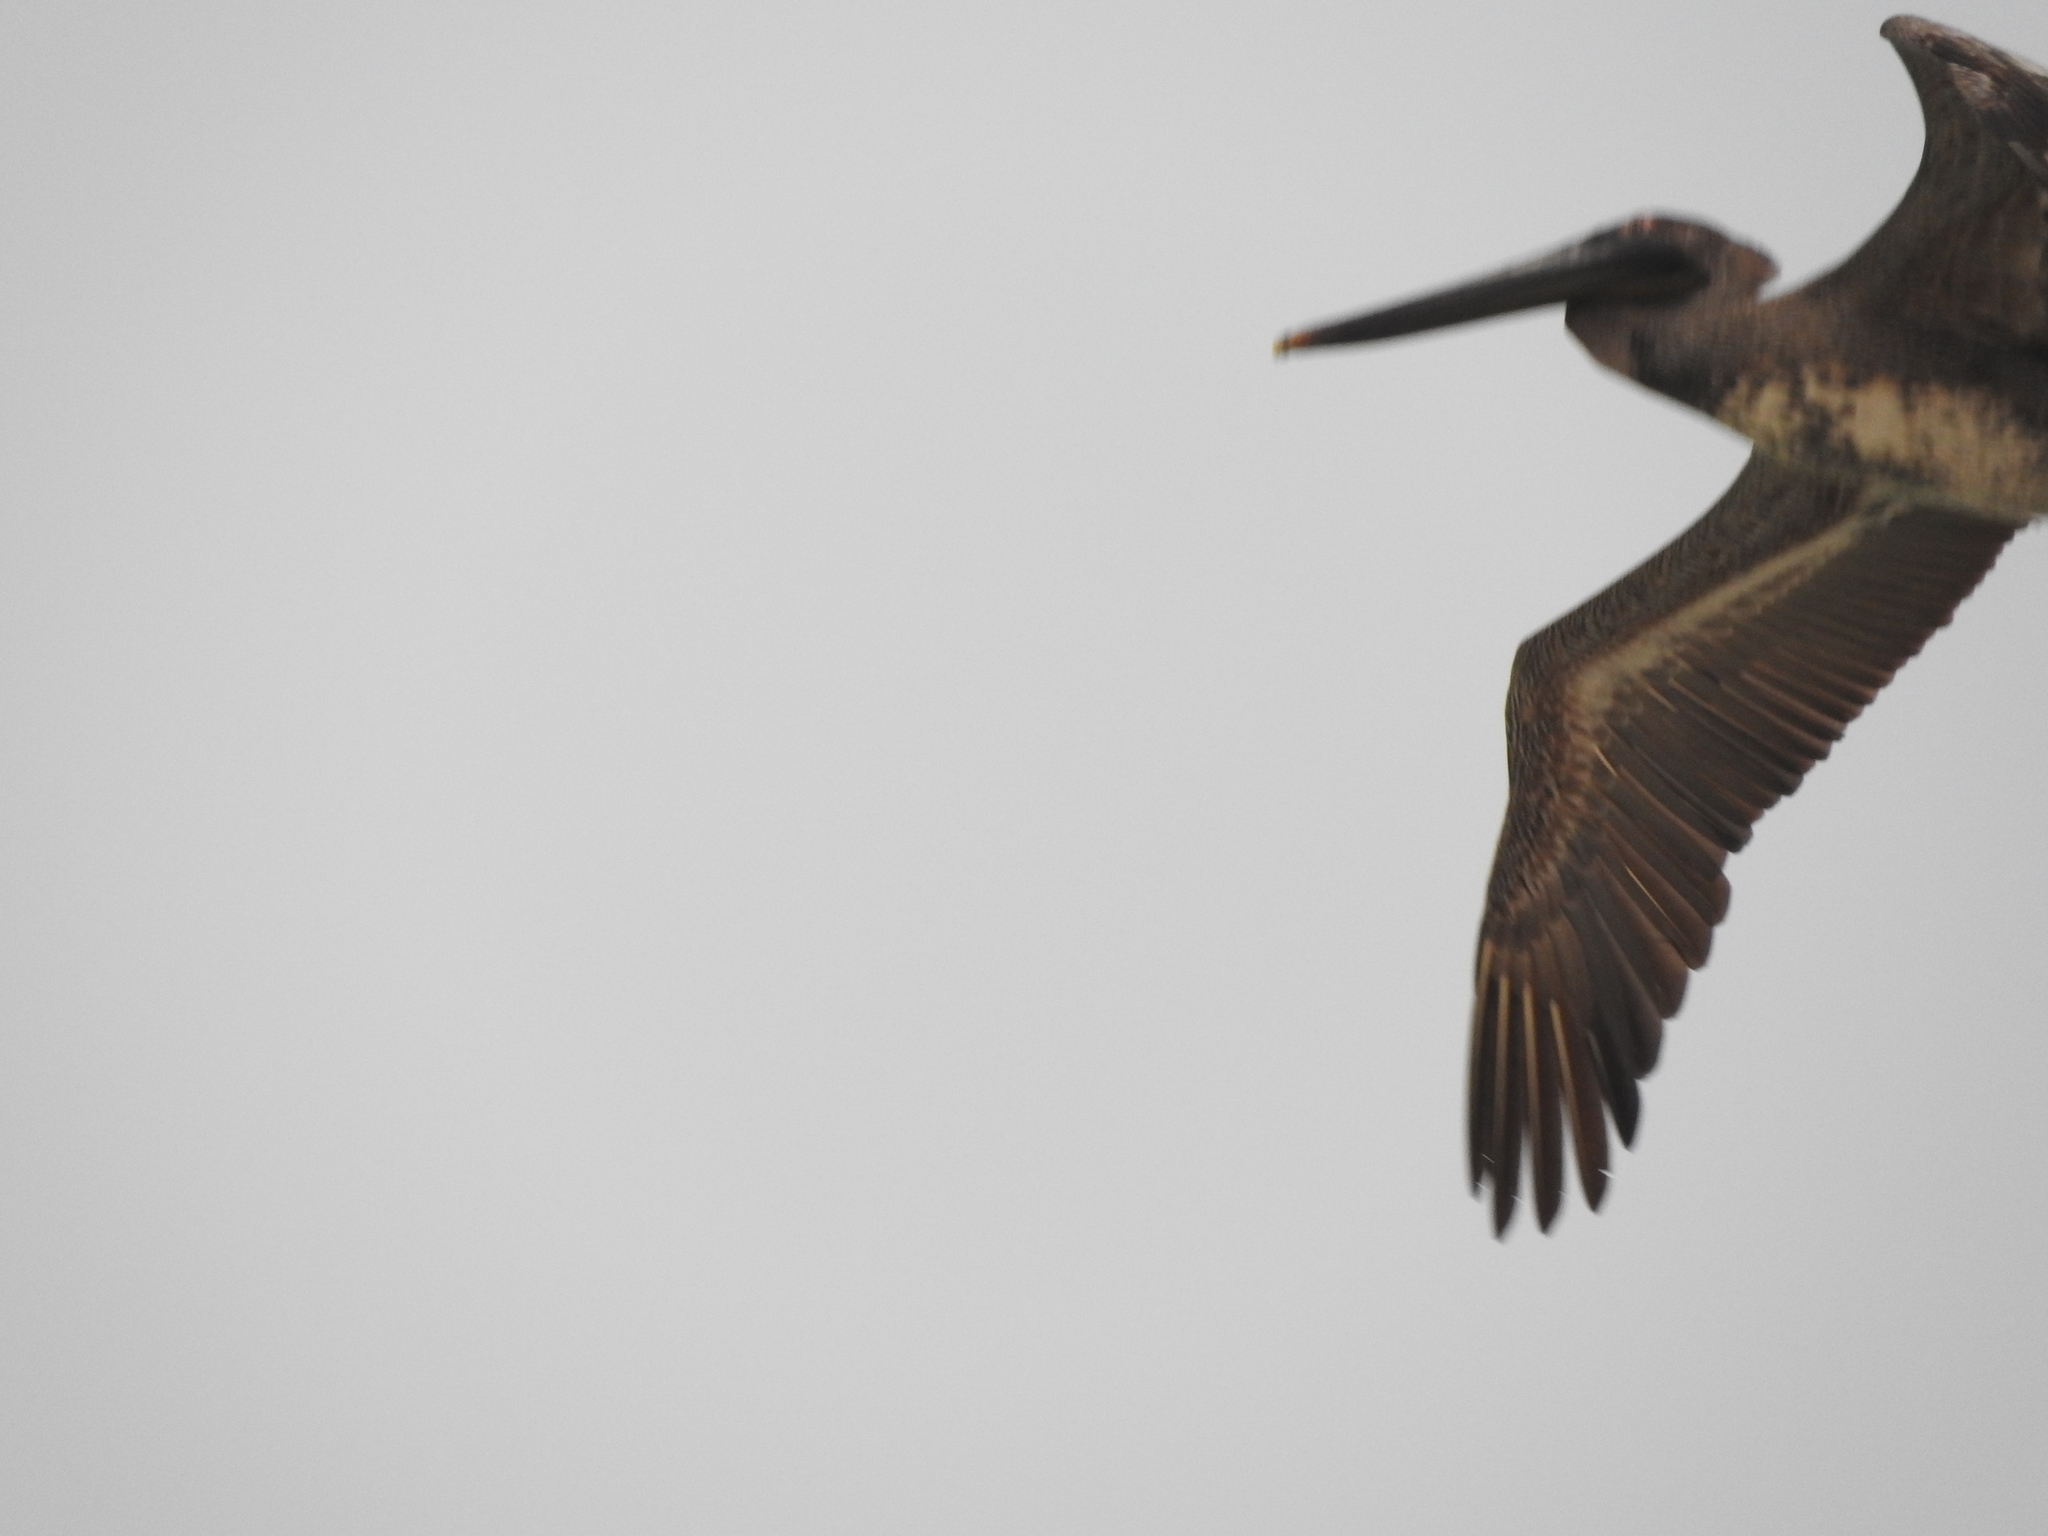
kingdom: Animalia
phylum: Chordata
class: Aves
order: Pelecaniformes
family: Pelecanidae
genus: Pelecanus
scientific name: Pelecanus occidentalis
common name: Brown pelican
